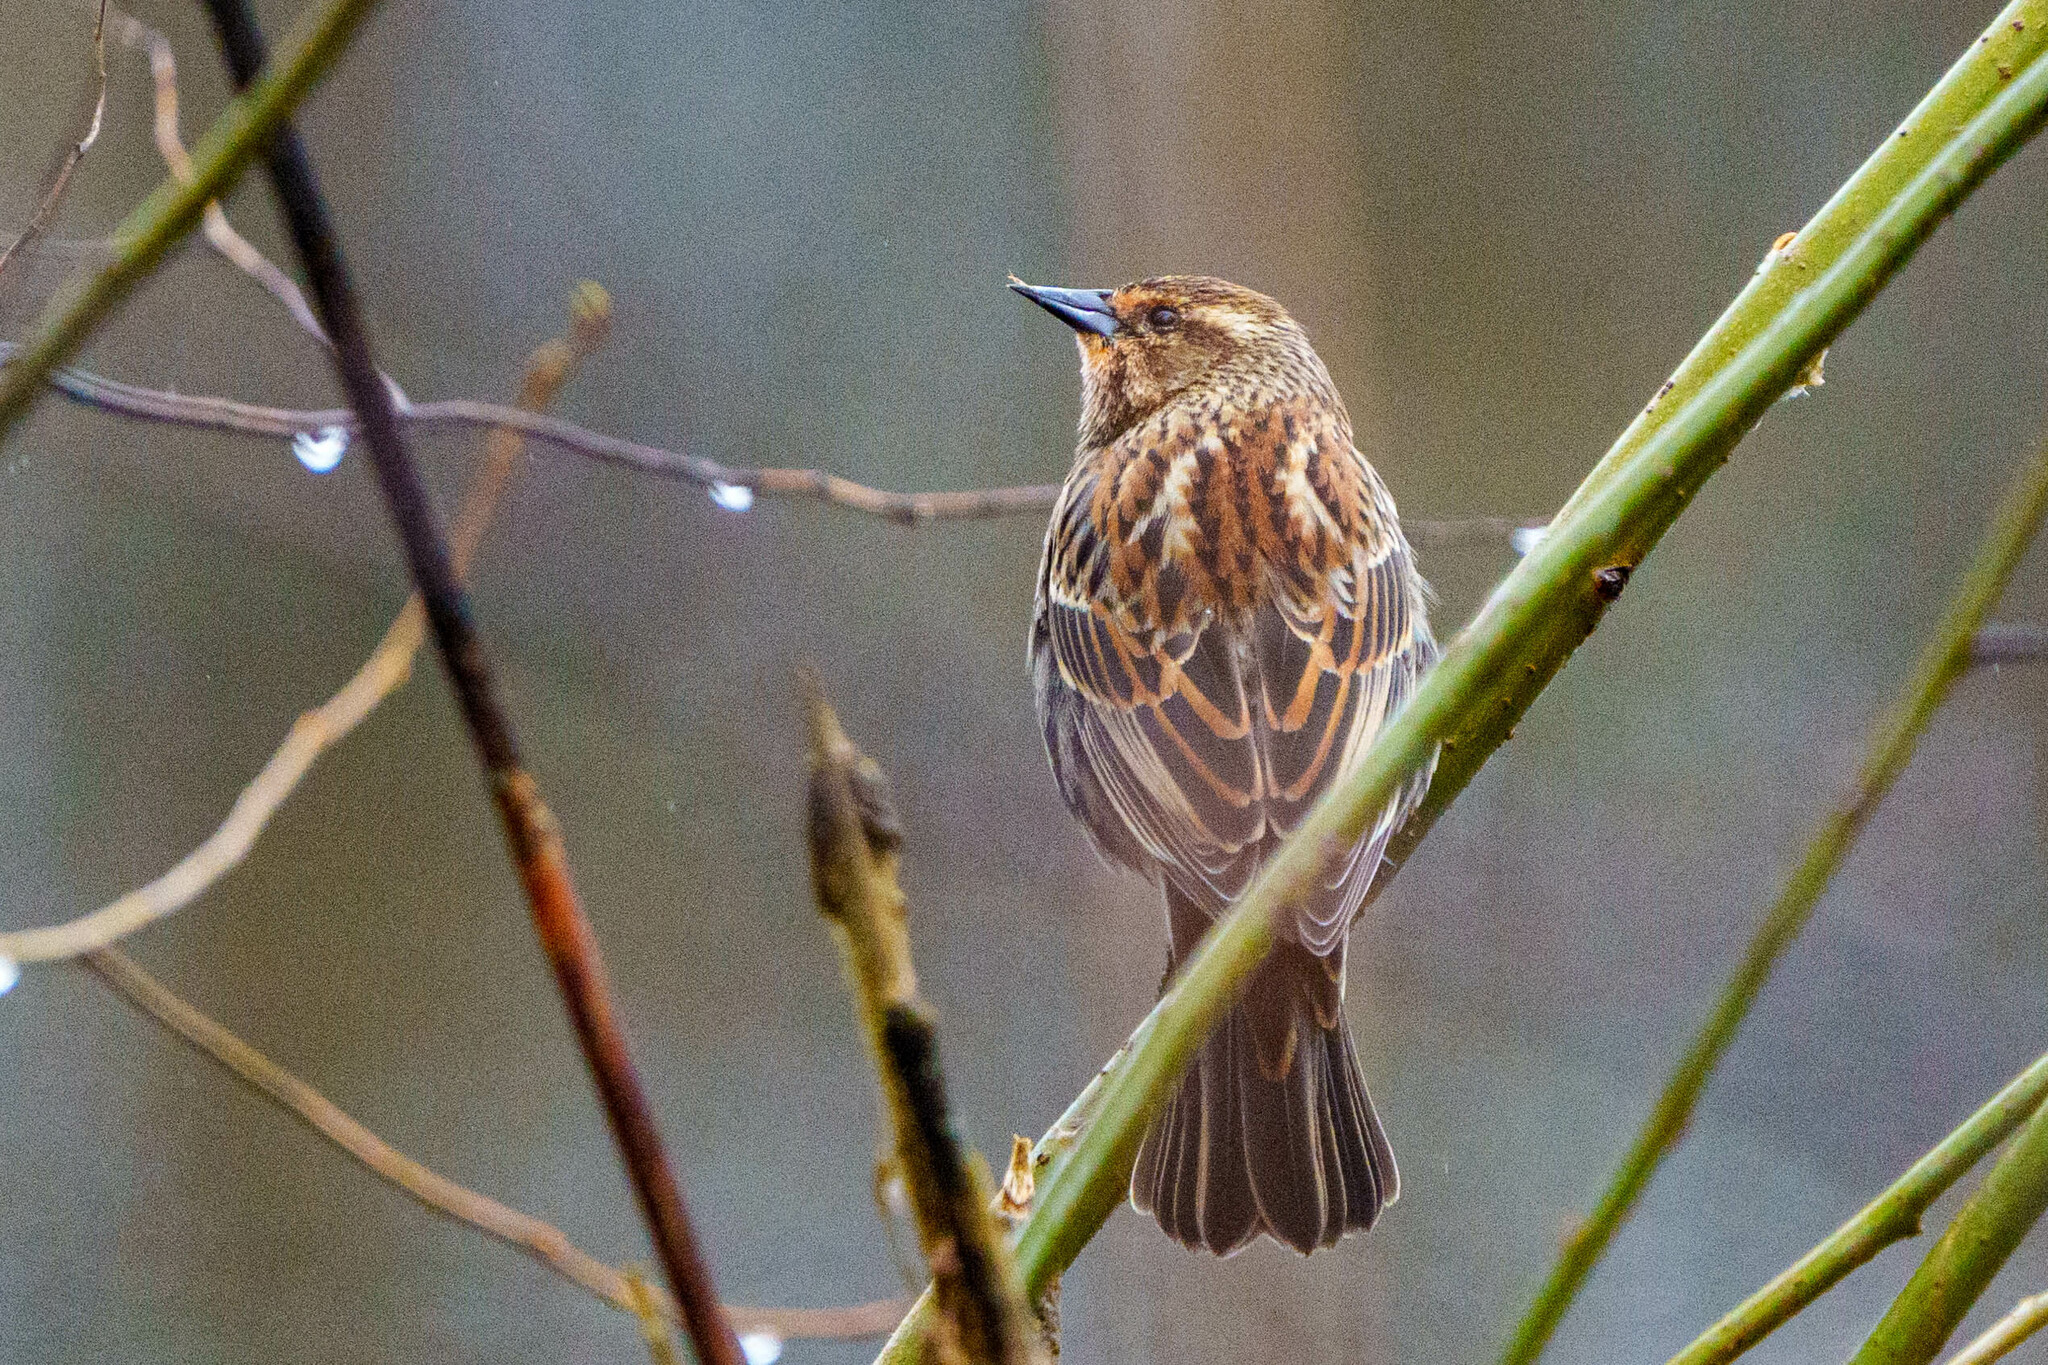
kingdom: Animalia
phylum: Chordata
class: Aves
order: Passeriformes
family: Icteridae
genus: Agelaius
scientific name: Agelaius phoeniceus
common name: Red-winged blackbird
